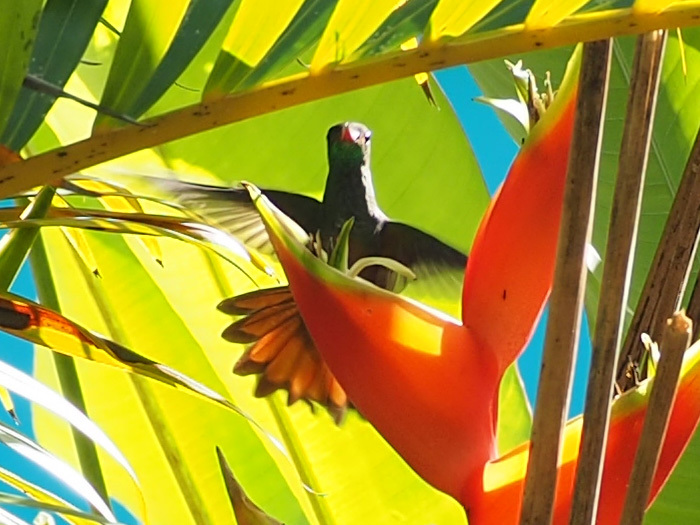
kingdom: Animalia
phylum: Chordata
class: Aves
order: Apodiformes
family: Trochilidae
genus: Amazilia
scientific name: Amazilia tzacatl
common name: Rufous-tailed hummingbird
